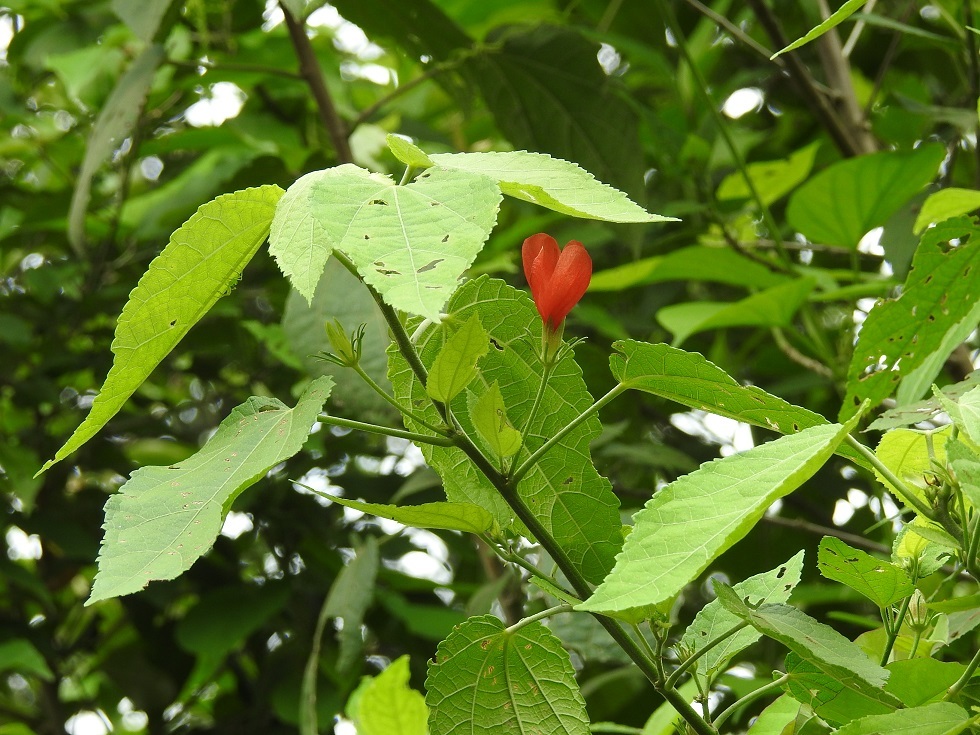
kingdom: Plantae
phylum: Tracheophyta
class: Magnoliopsida
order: Malvales
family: Malvaceae
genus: Malvaviscus
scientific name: Malvaviscus arboreus
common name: Wax mallow
